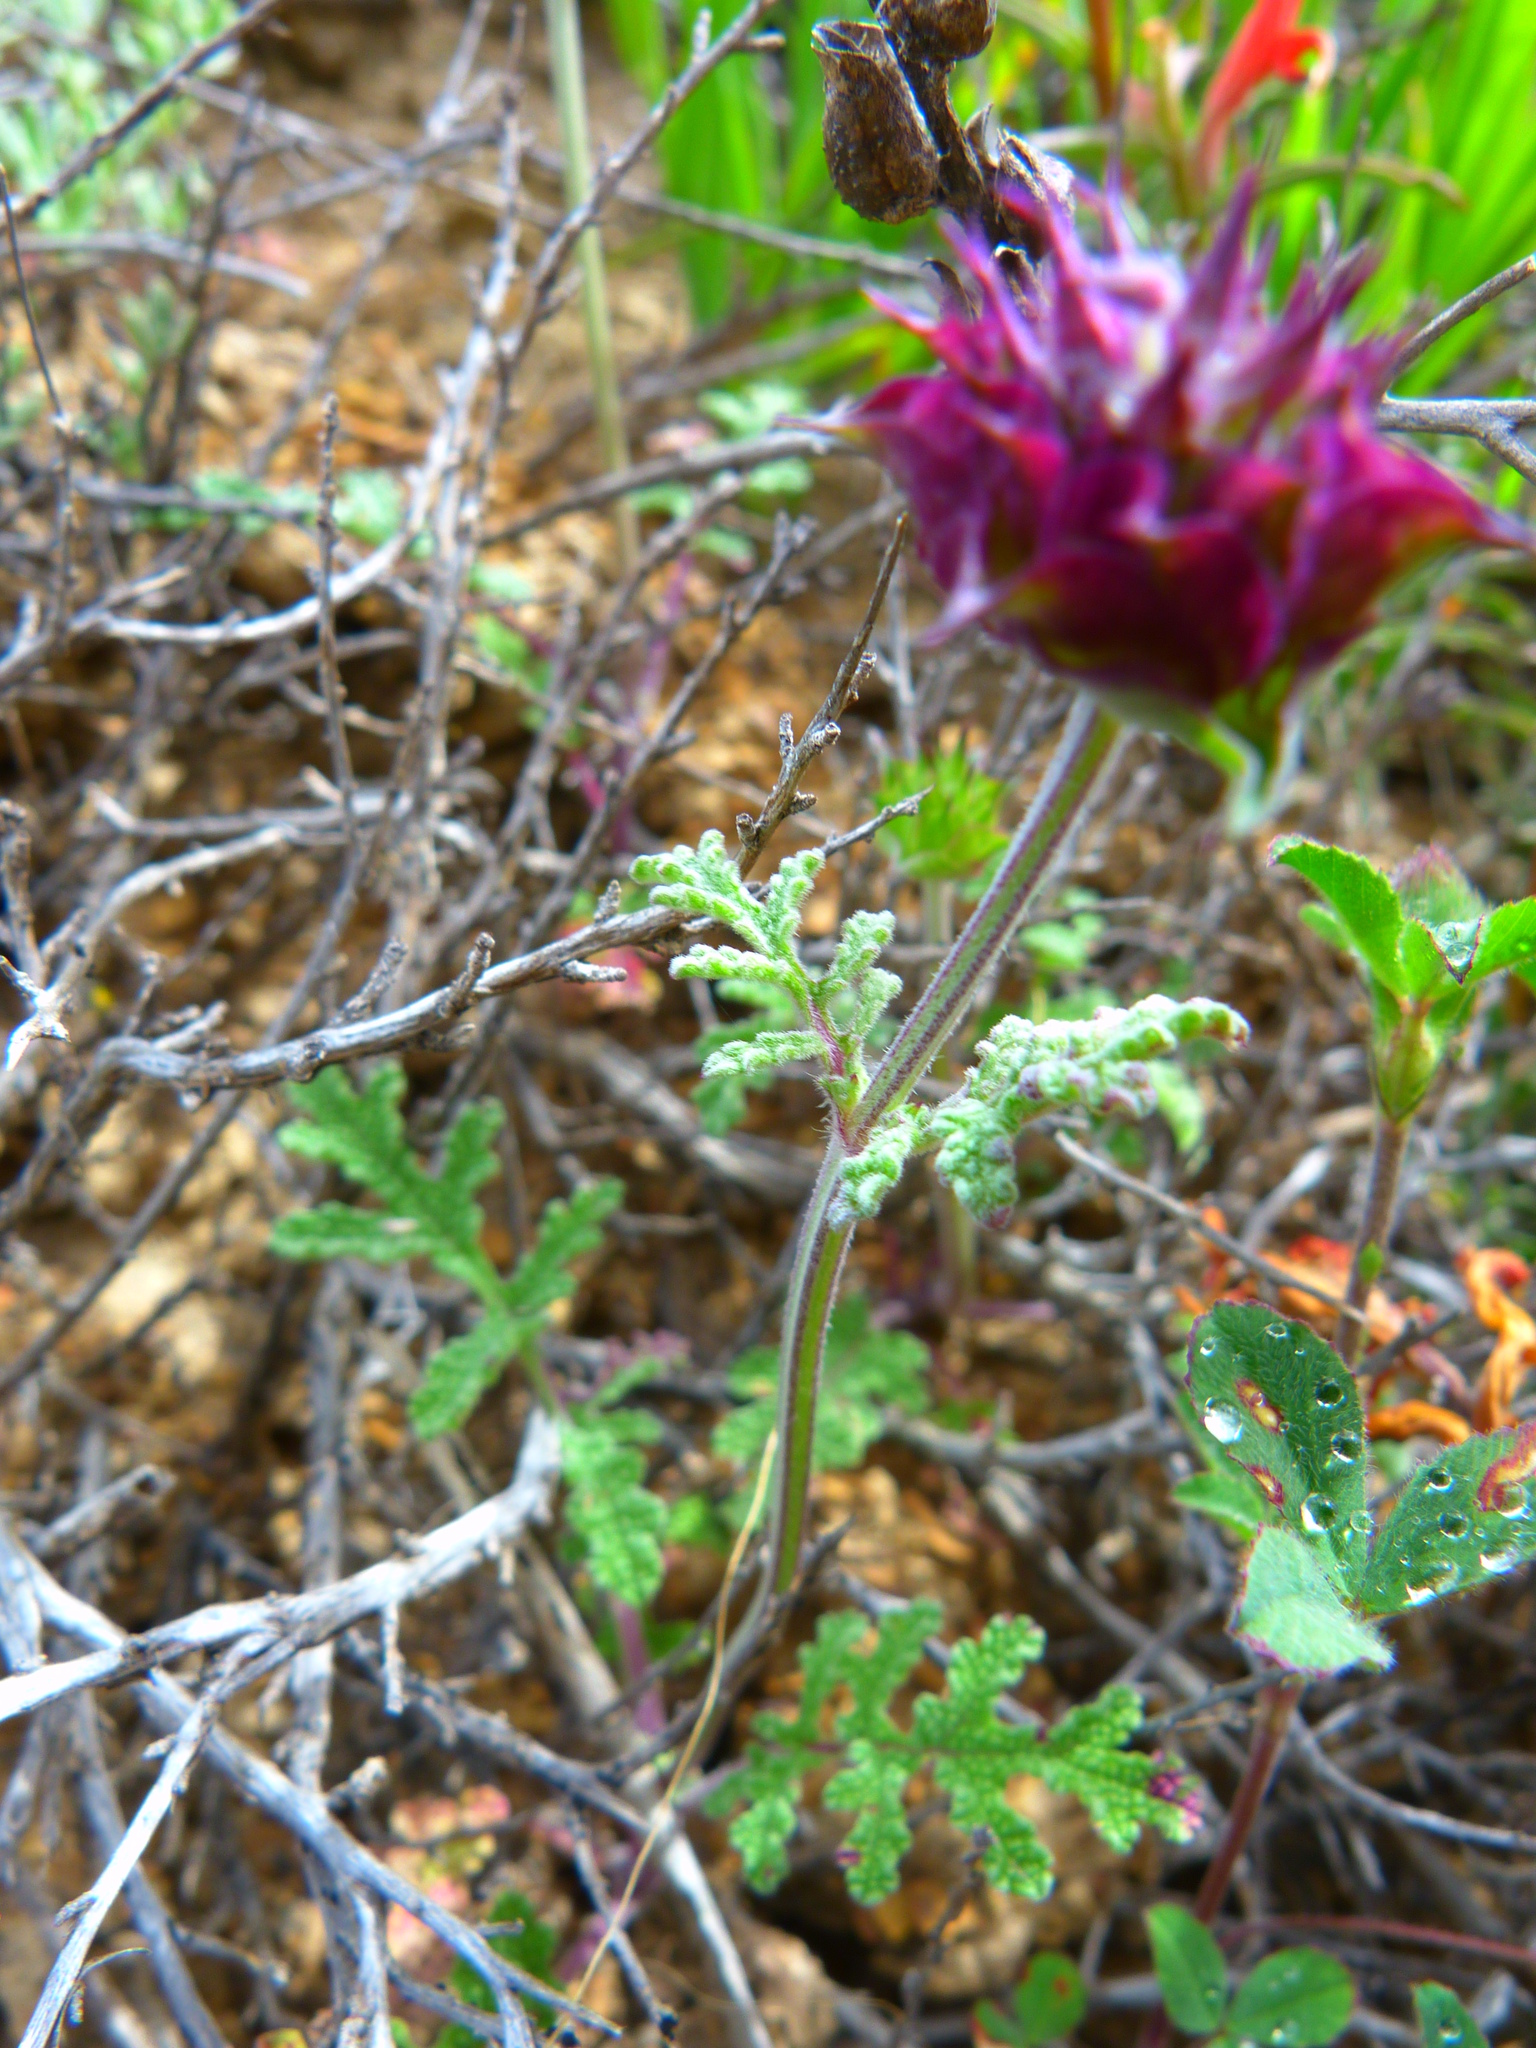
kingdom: Plantae
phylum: Tracheophyta
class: Magnoliopsida
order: Lamiales
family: Lamiaceae
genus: Salvia
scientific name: Salvia columbariae
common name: Chia
